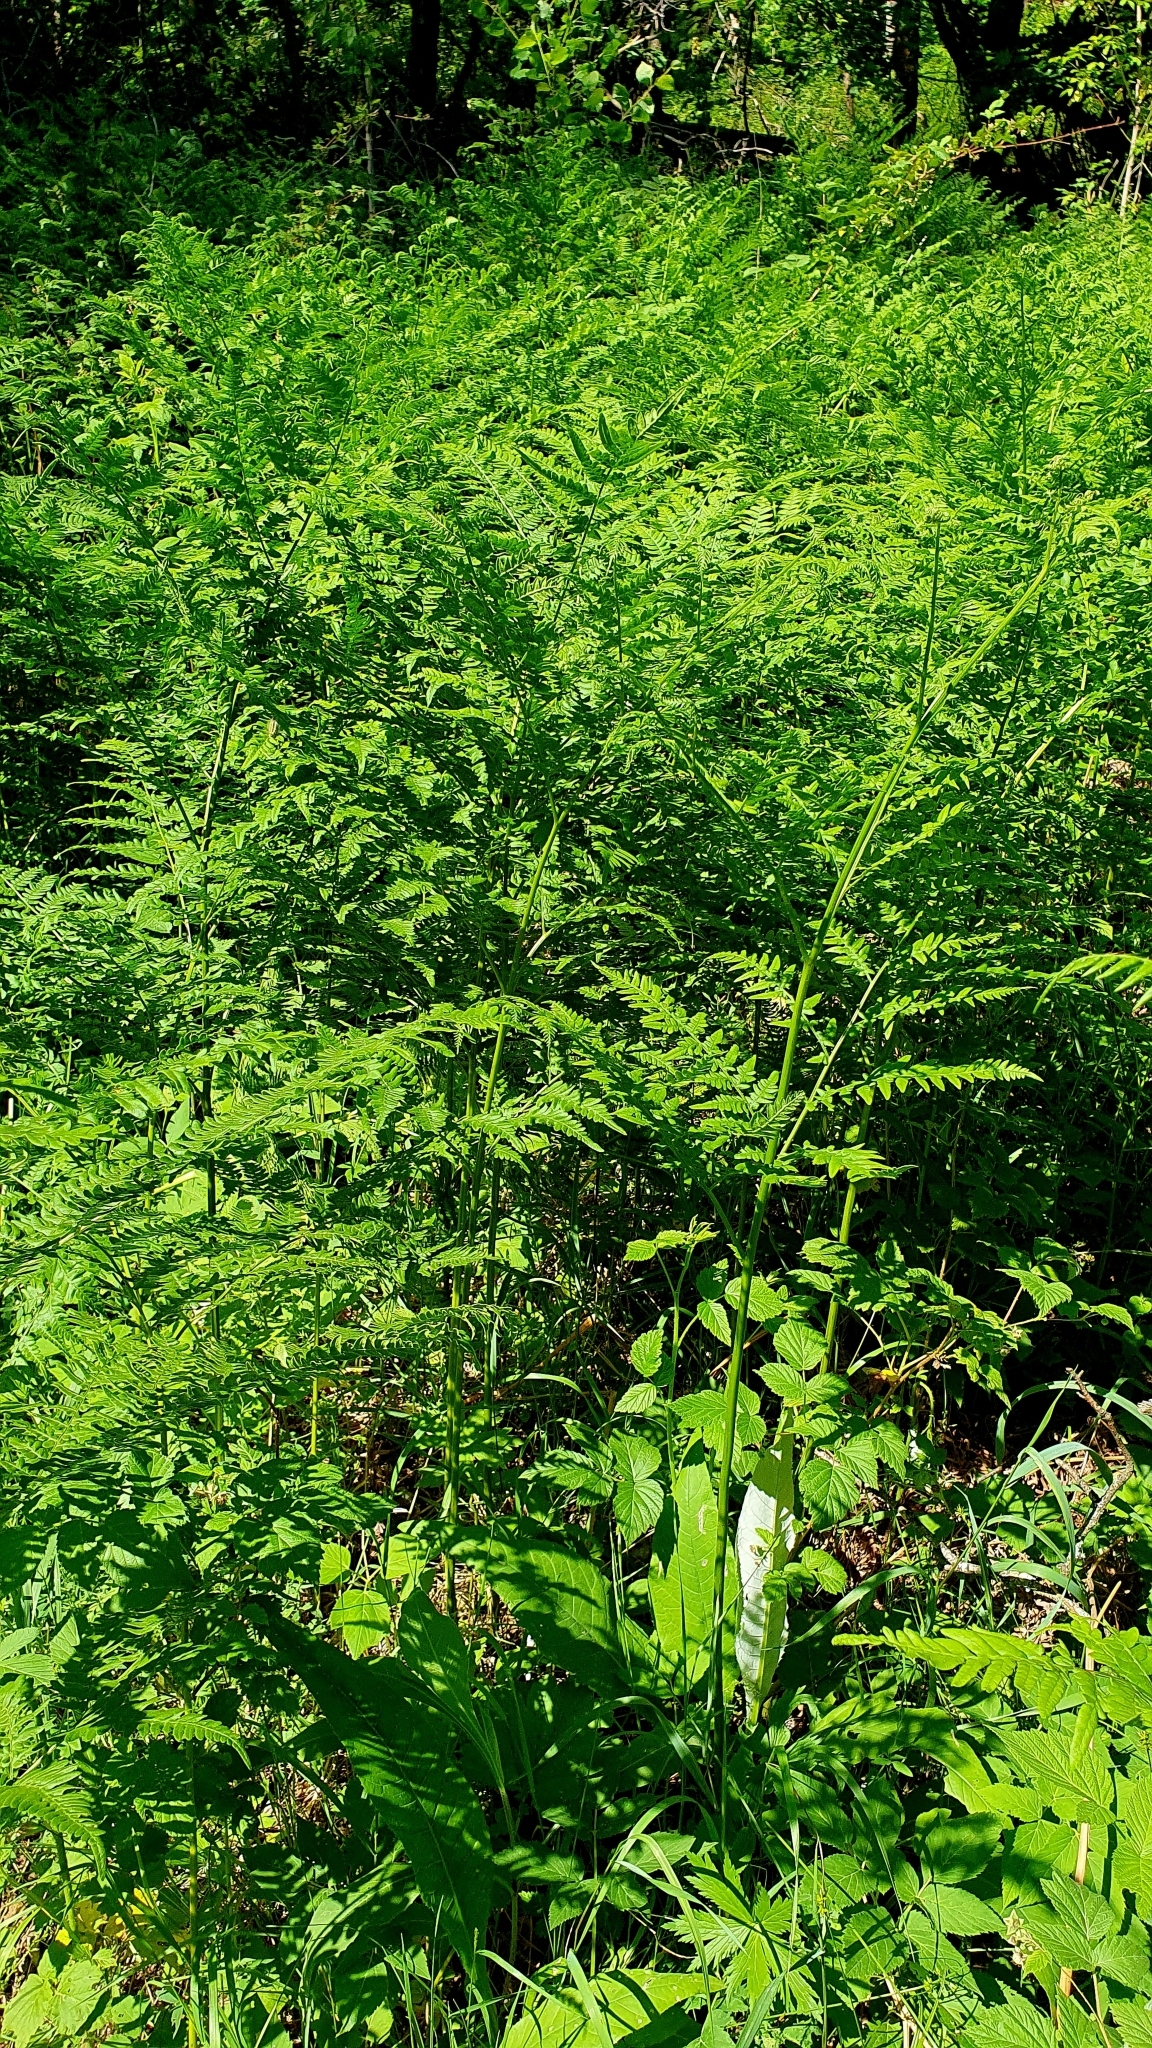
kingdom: Plantae
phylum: Tracheophyta
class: Polypodiopsida
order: Polypodiales
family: Dennstaedtiaceae
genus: Pteridium
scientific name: Pteridium aquilinum
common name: Bracken
